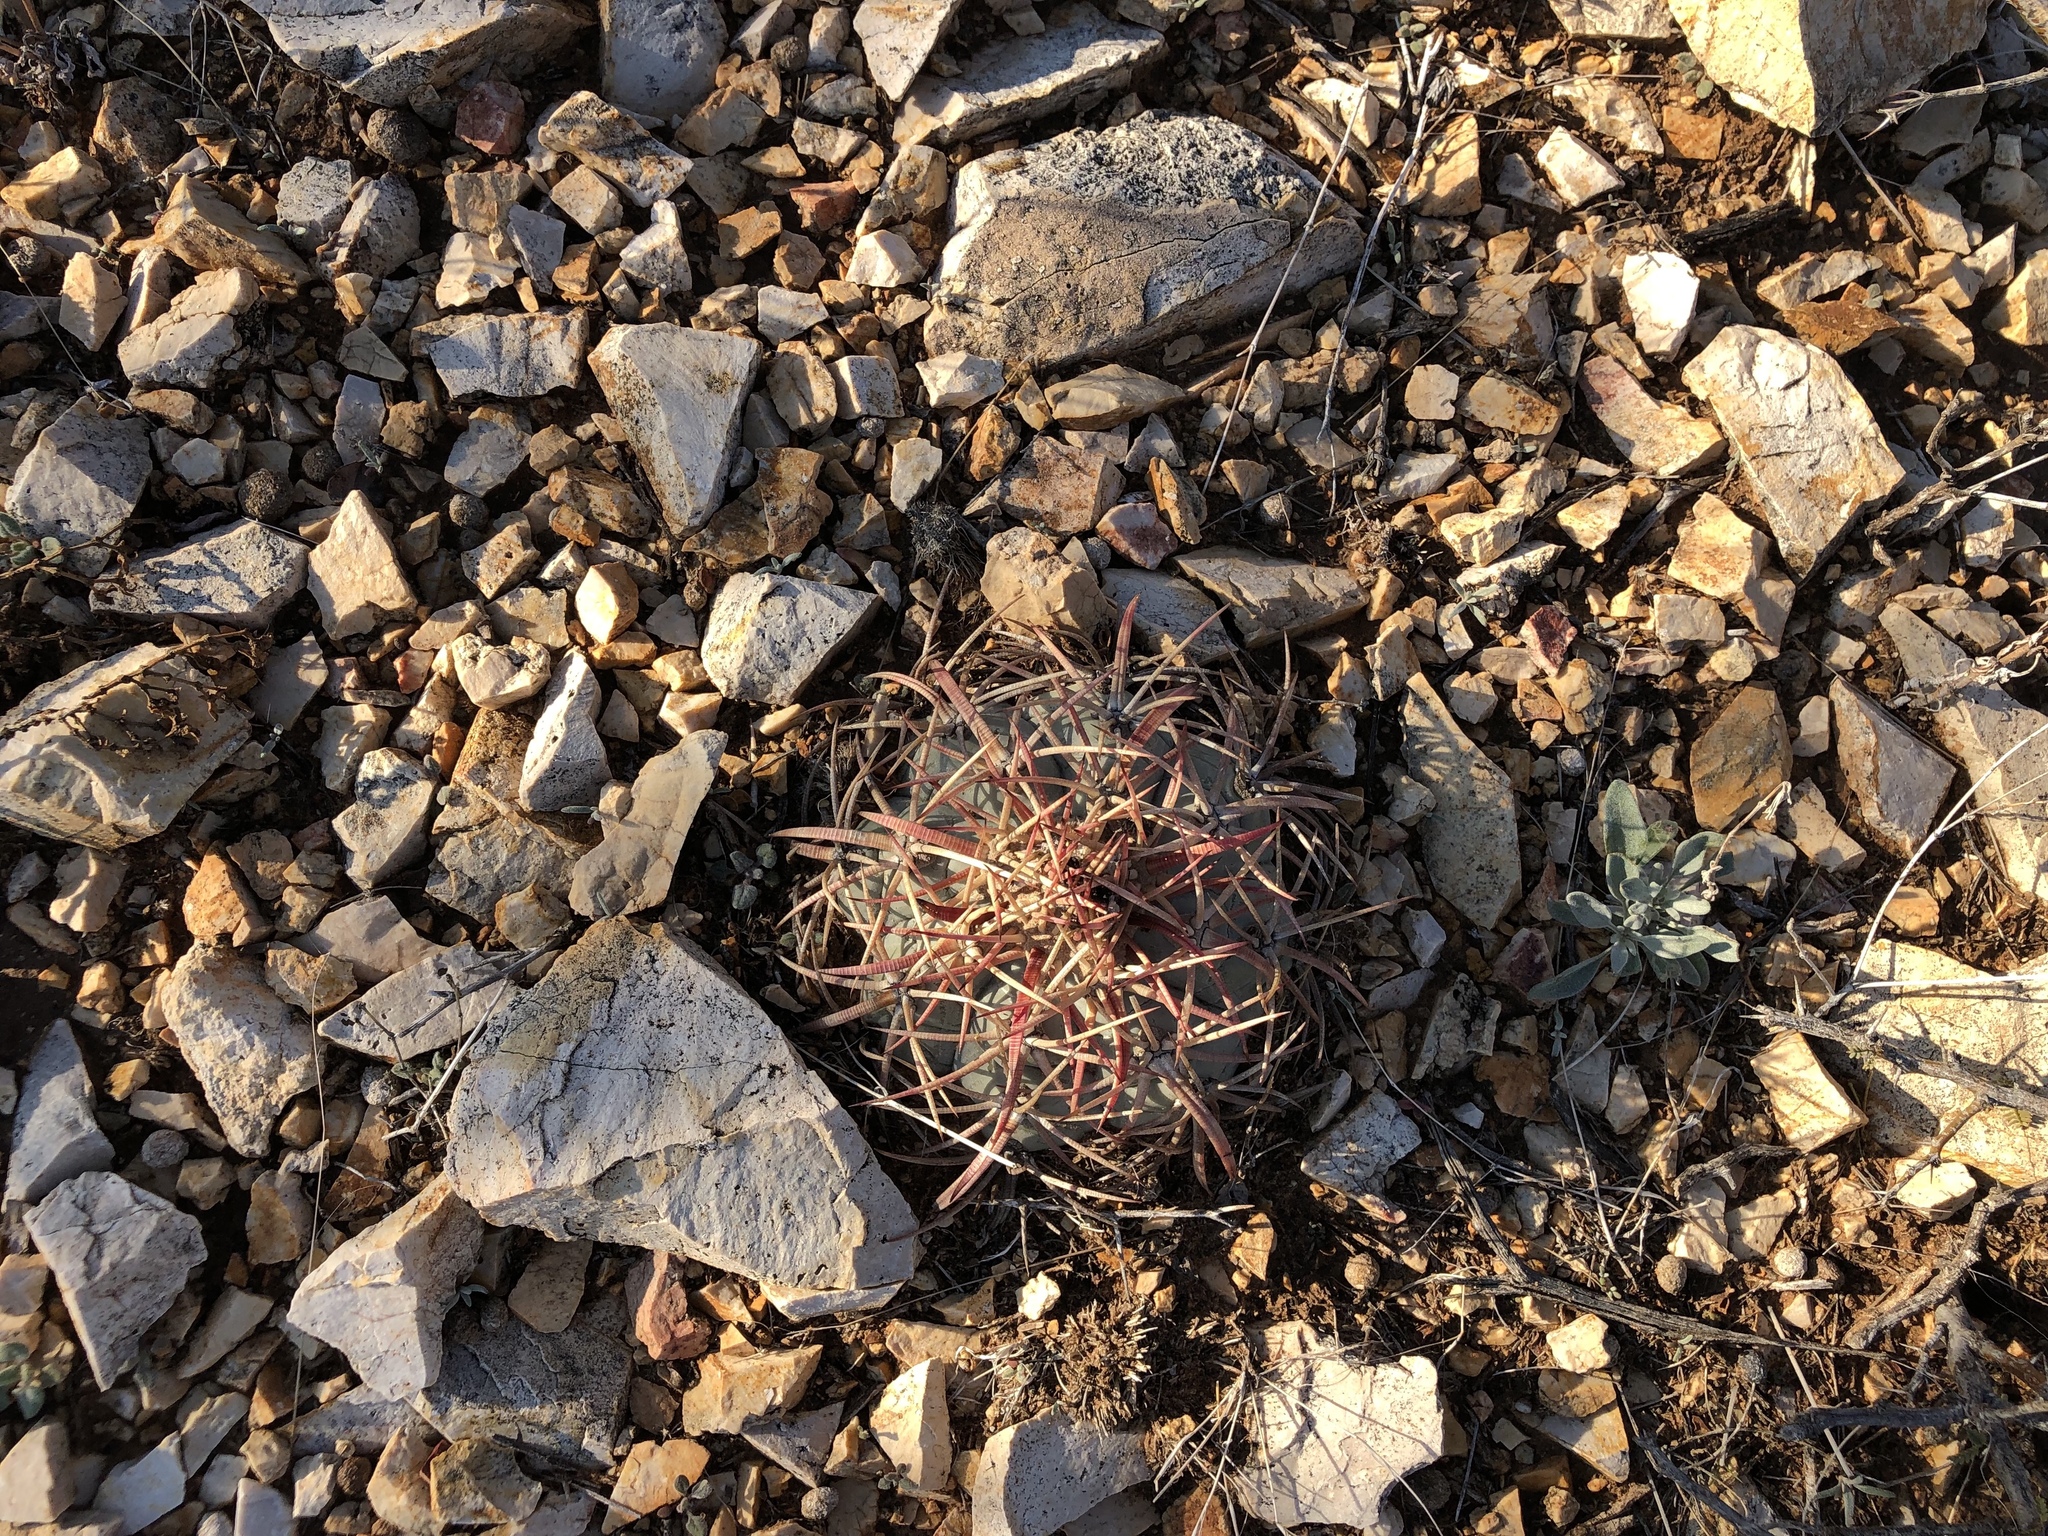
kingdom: Plantae
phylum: Tracheophyta
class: Magnoliopsida
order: Caryophyllales
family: Cactaceae
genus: Echinocactus
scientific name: Echinocactus horizonthalonius
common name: Devilshead
